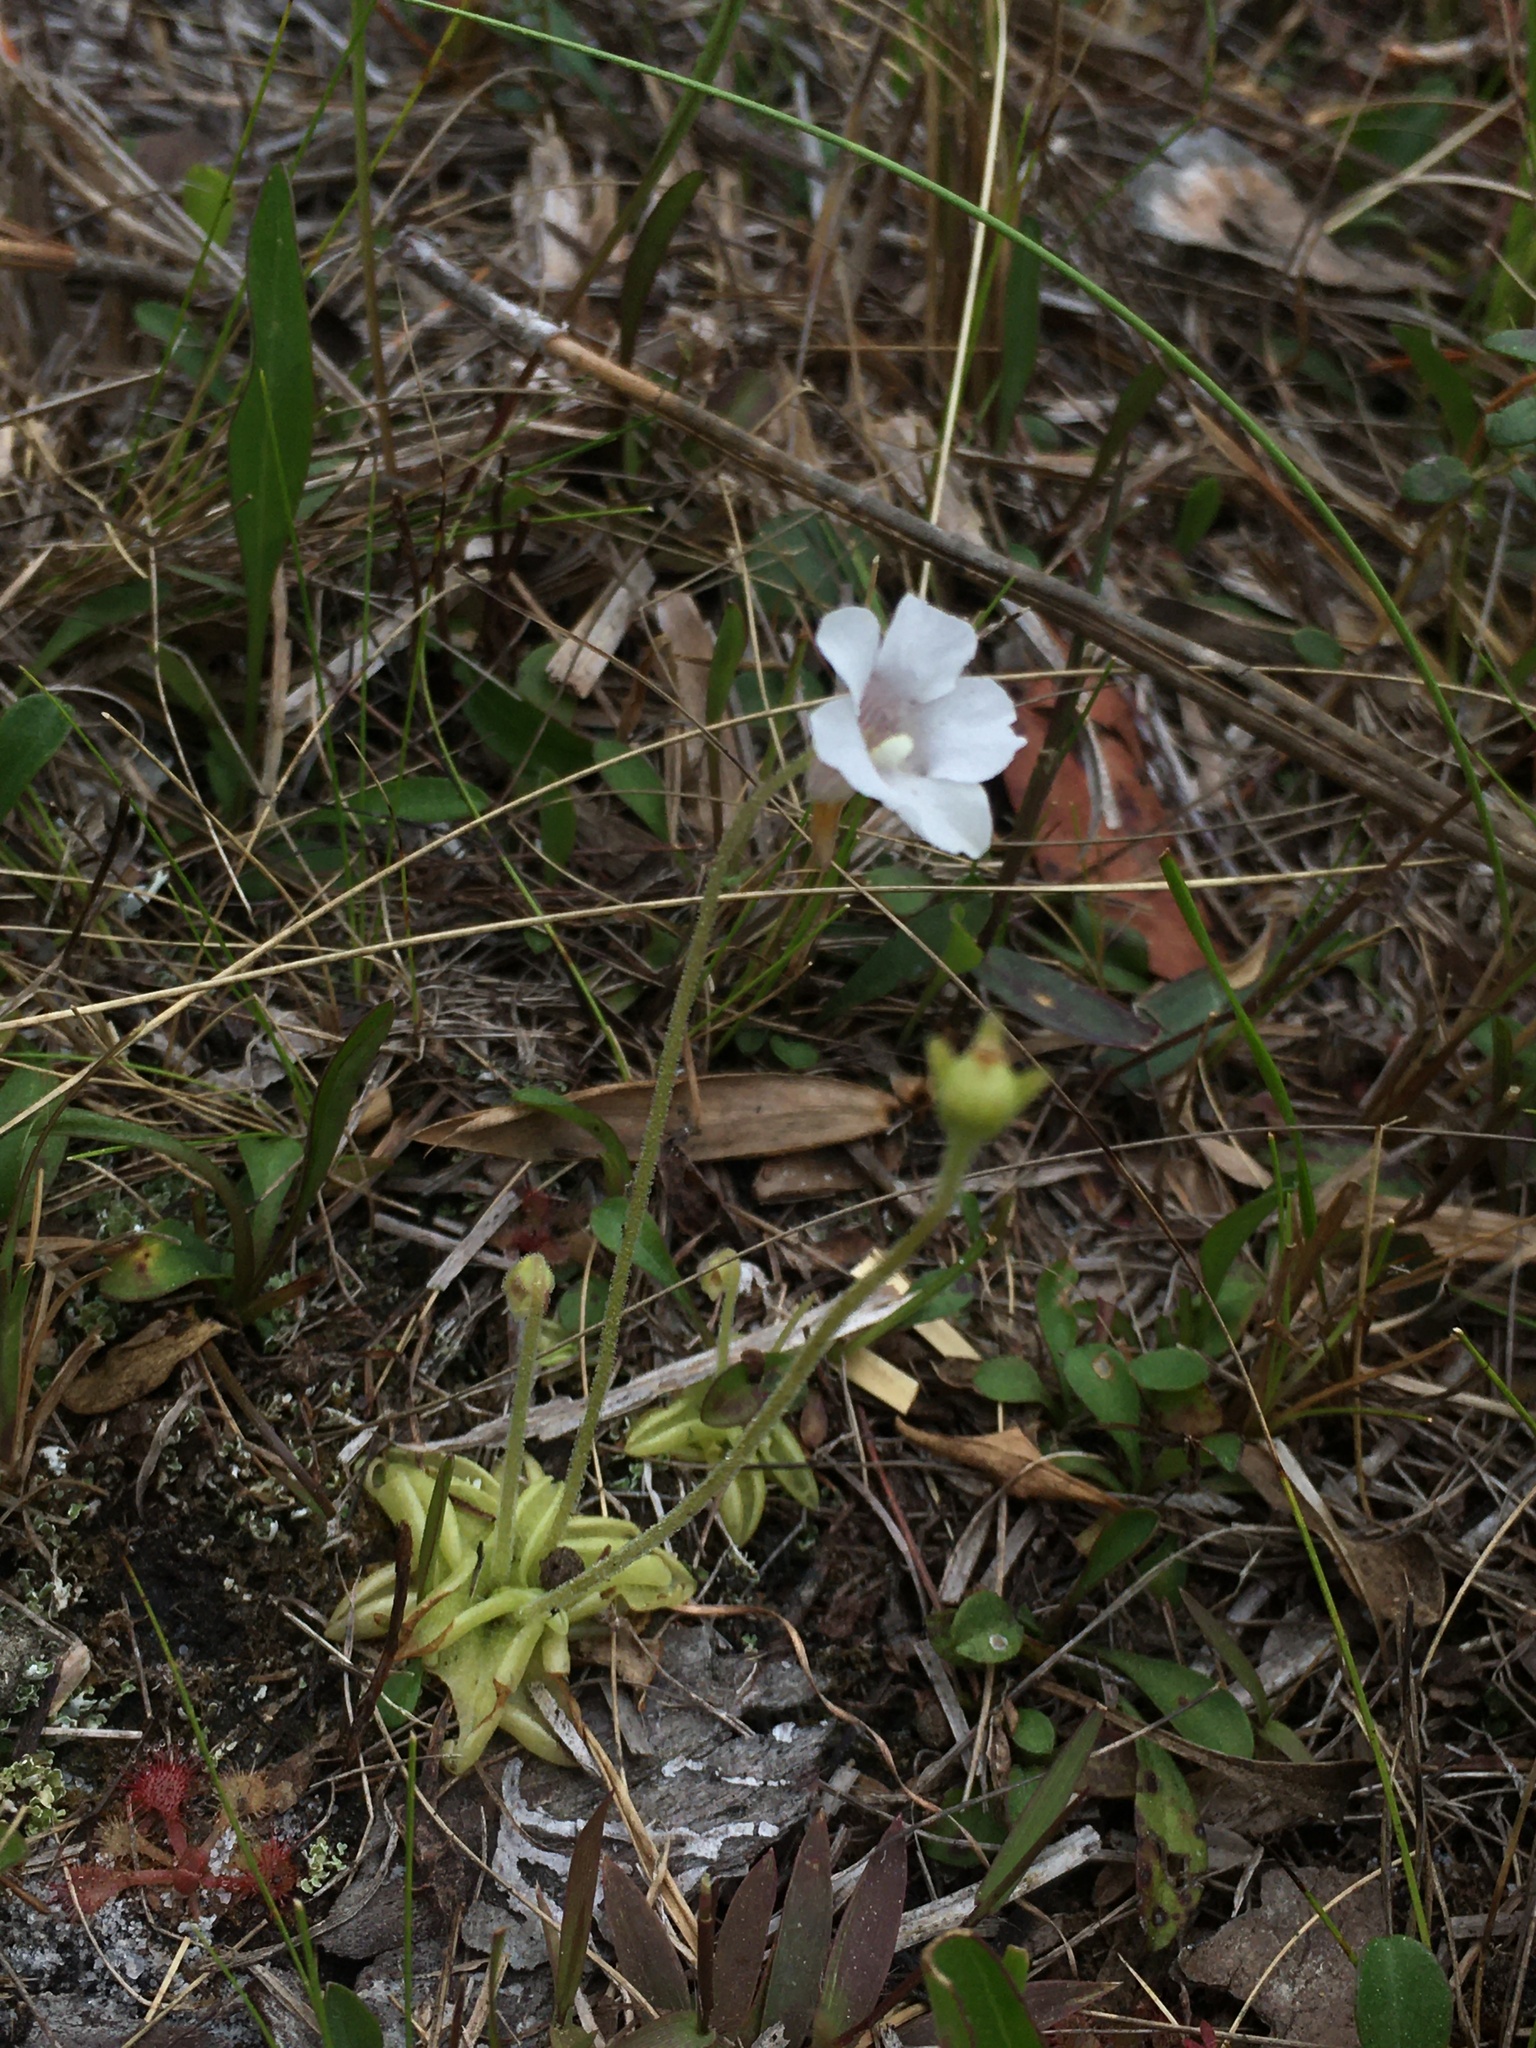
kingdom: Plantae
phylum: Tracheophyta
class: Magnoliopsida
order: Lamiales
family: Lentibulariaceae
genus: Pinguicula
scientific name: Pinguicula pumila
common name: Small butterwort
